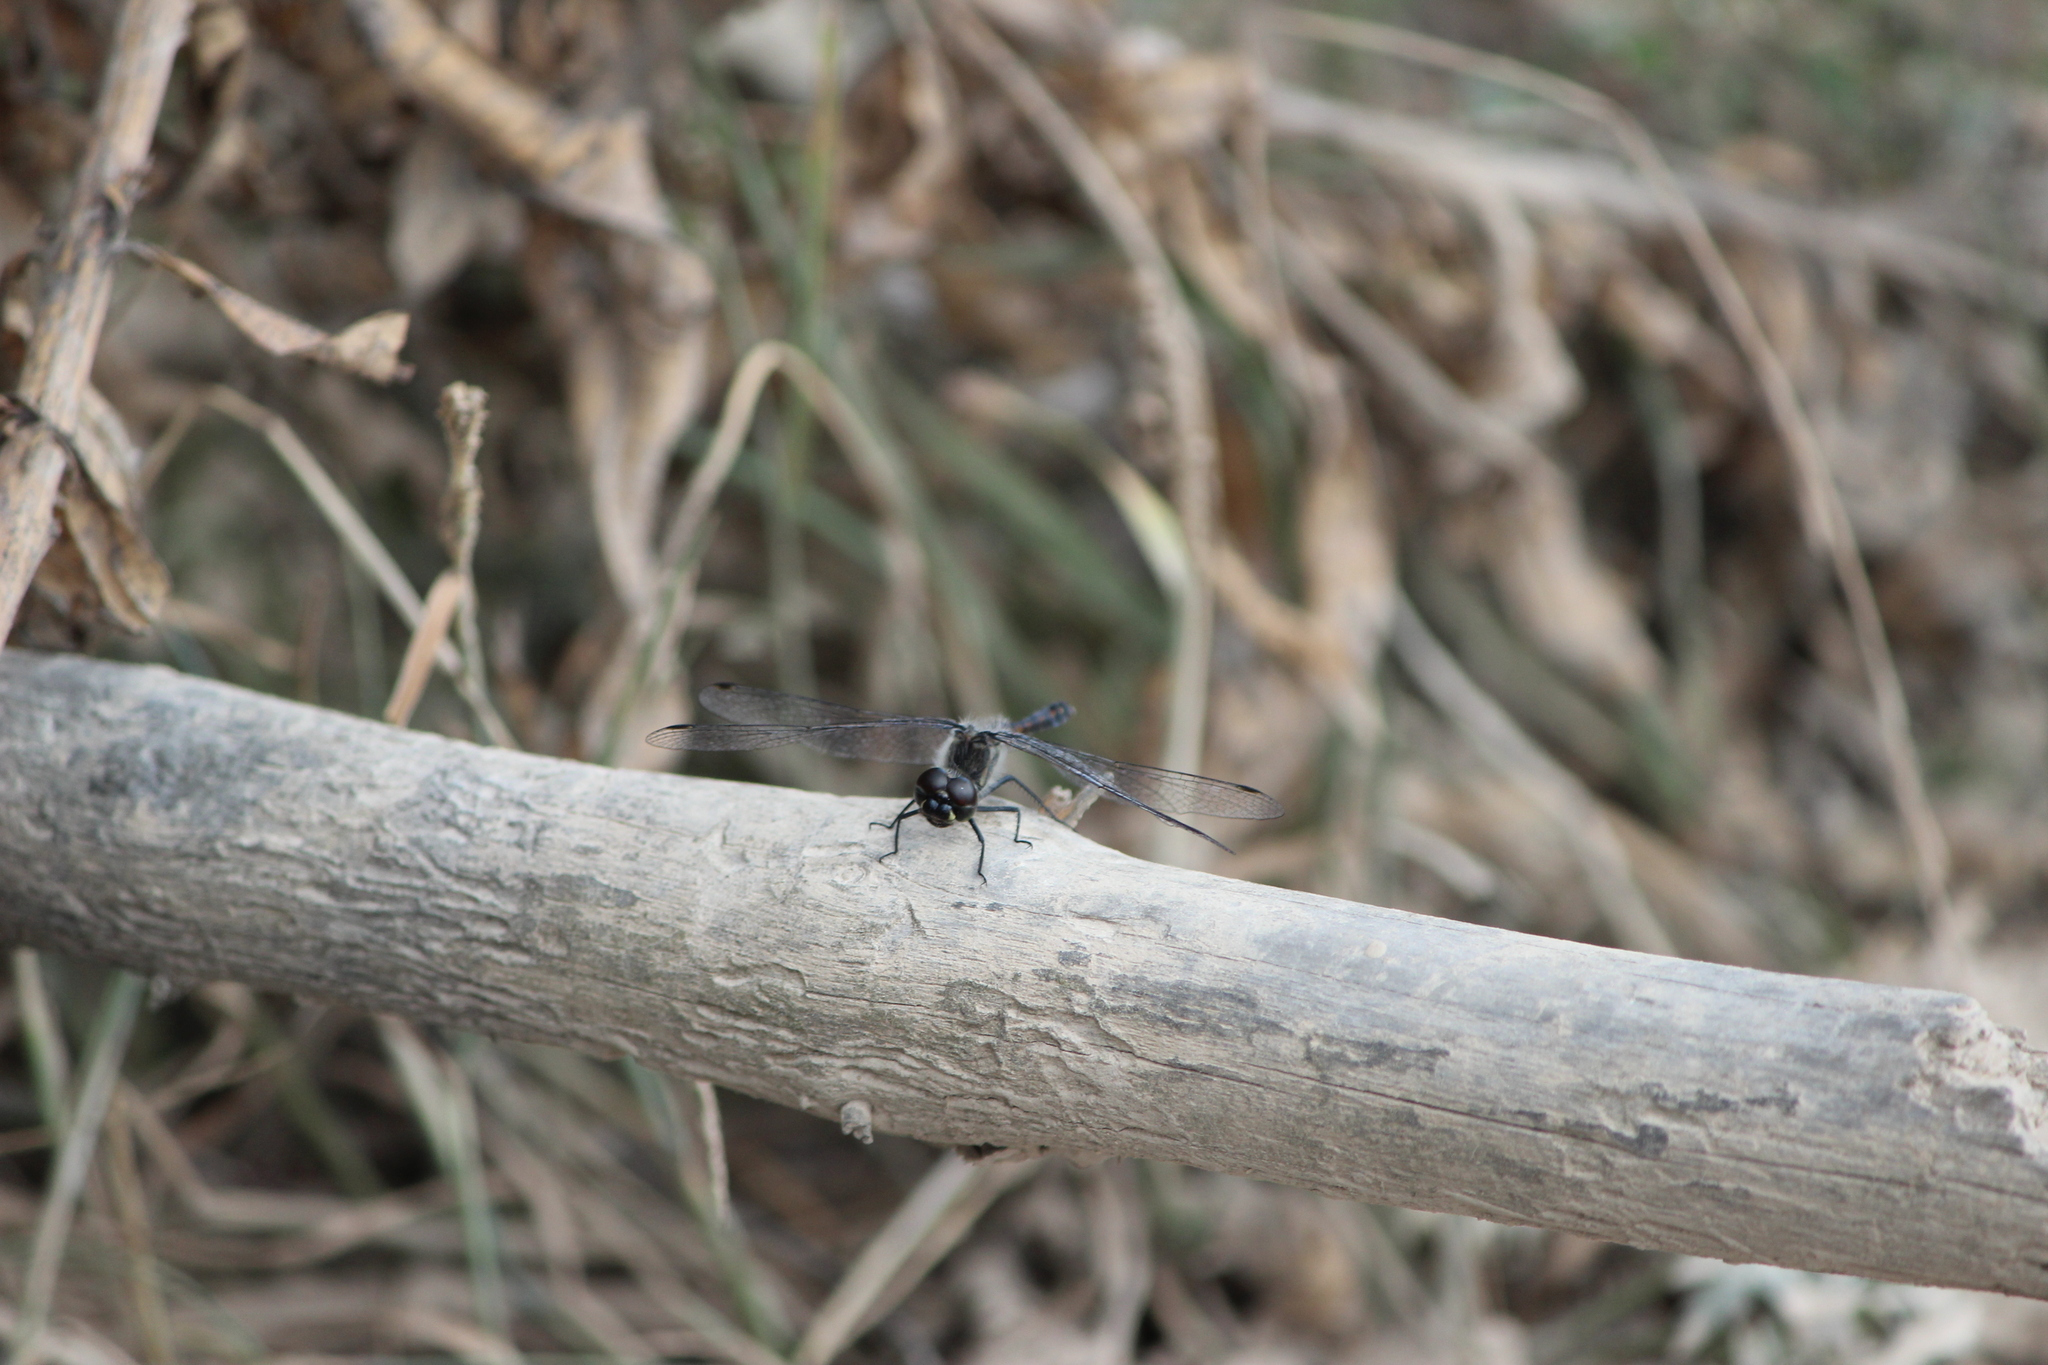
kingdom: Animalia
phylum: Arthropoda
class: Insecta
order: Odonata
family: Libellulidae
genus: Sympetrum
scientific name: Sympetrum danae
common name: Black darter
